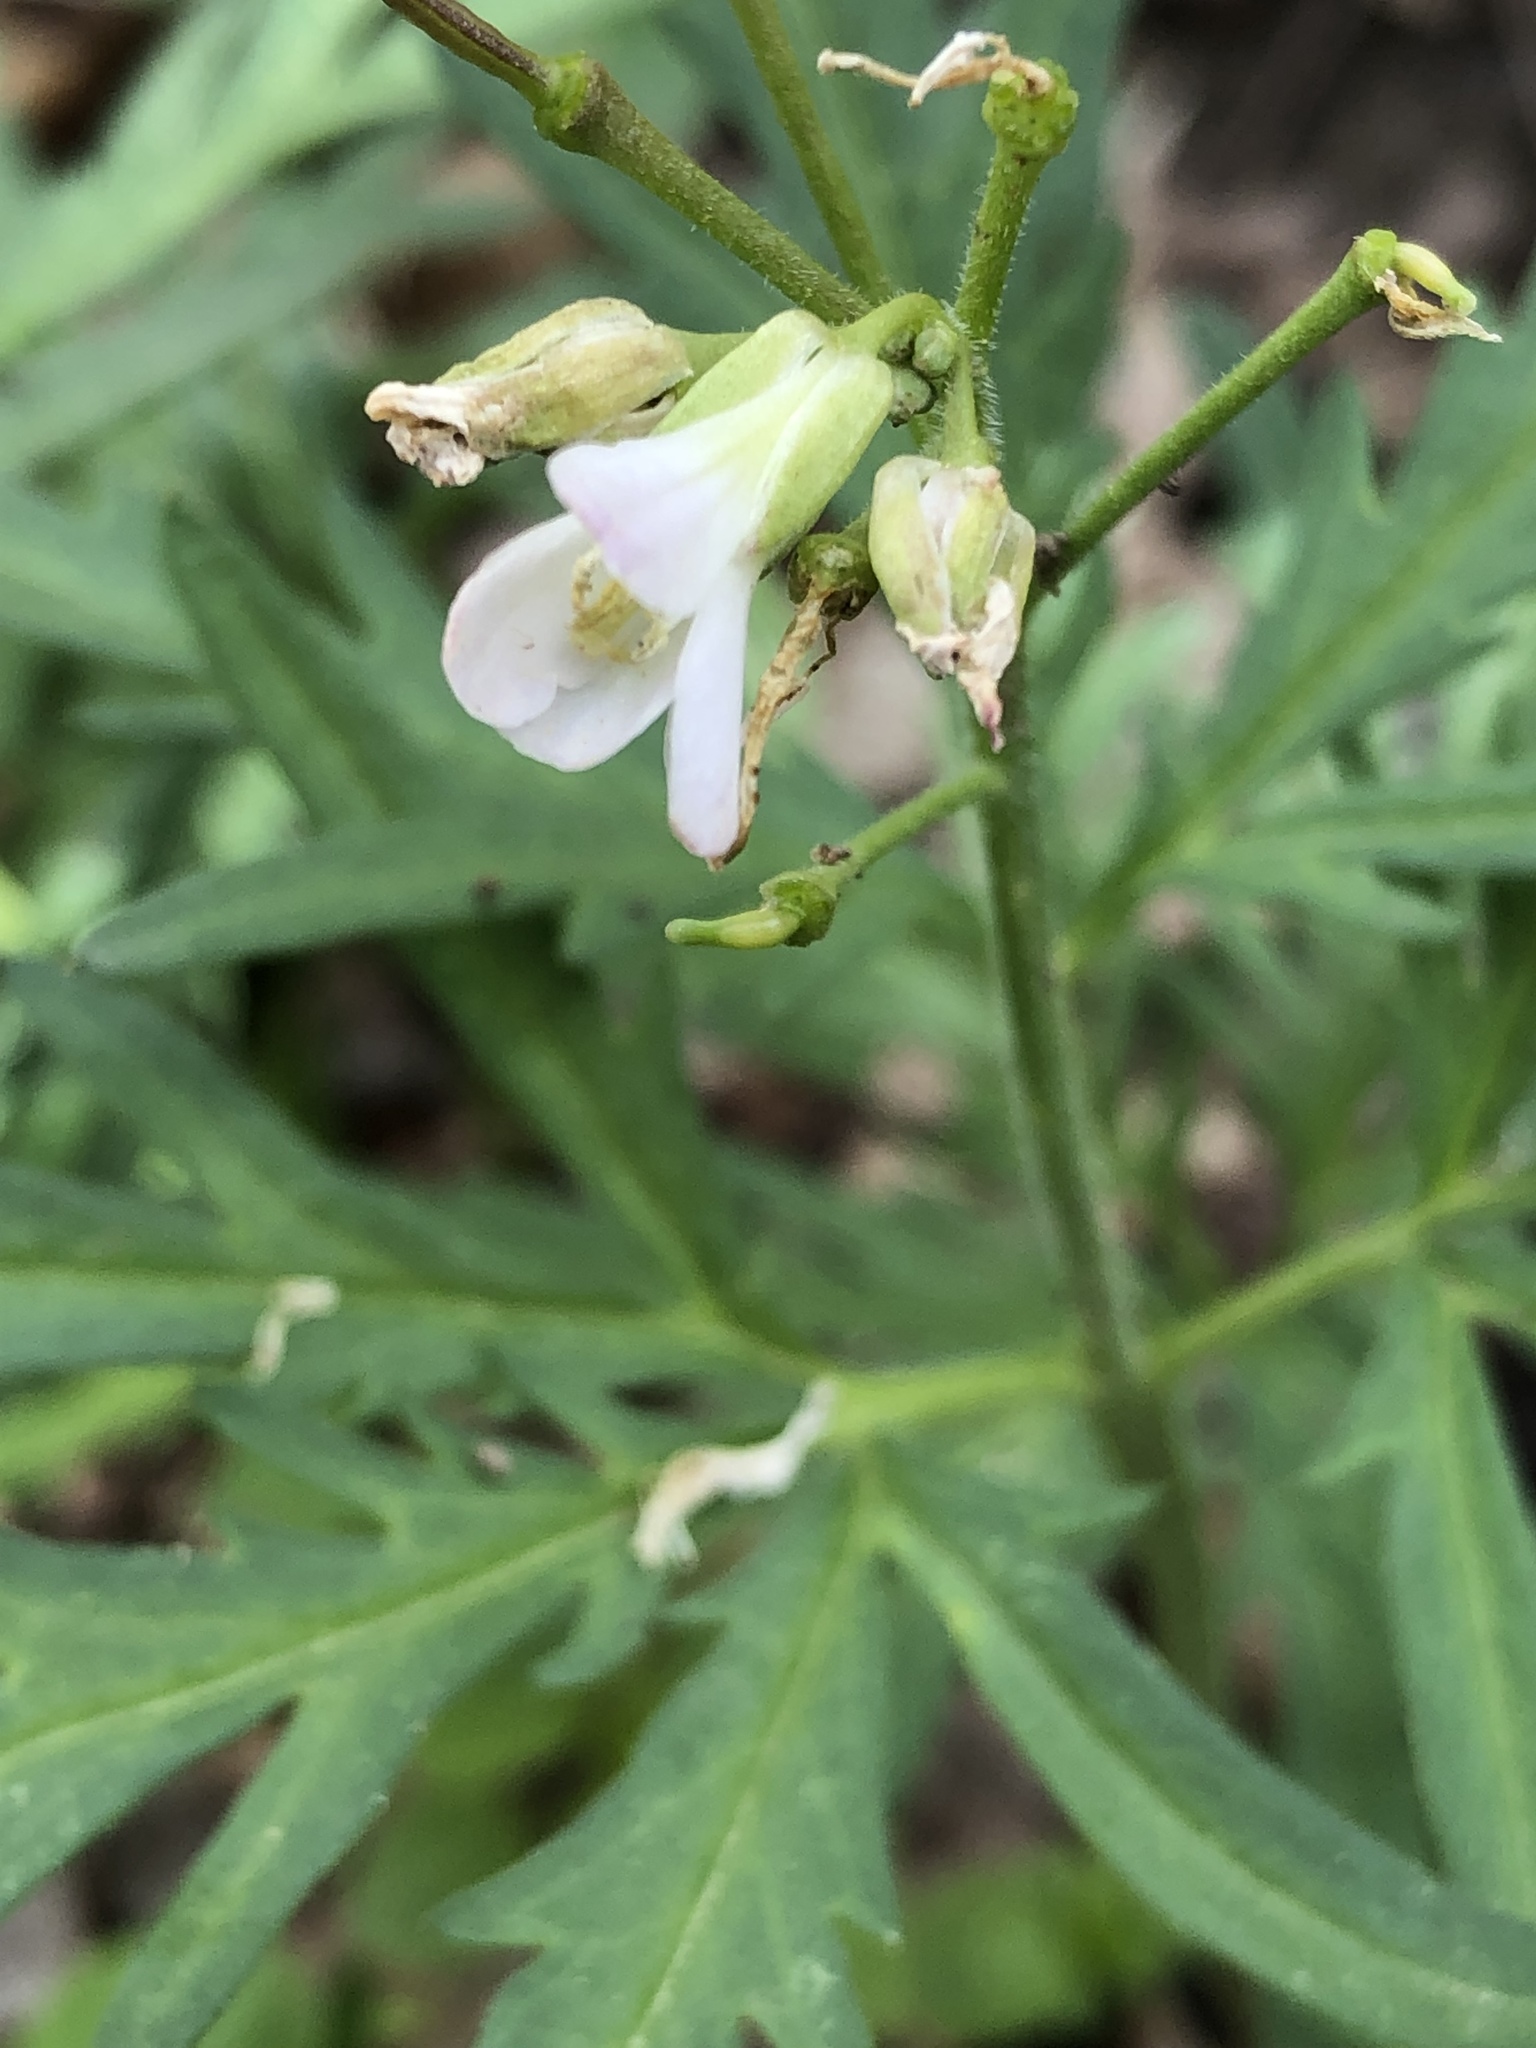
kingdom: Plantae
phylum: Tracheophyta
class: Magnoliopsida
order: Brassicales
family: Brassicaceae
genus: Cardamine
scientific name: Cardamine concatenata
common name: Cut-leaf toothcup
